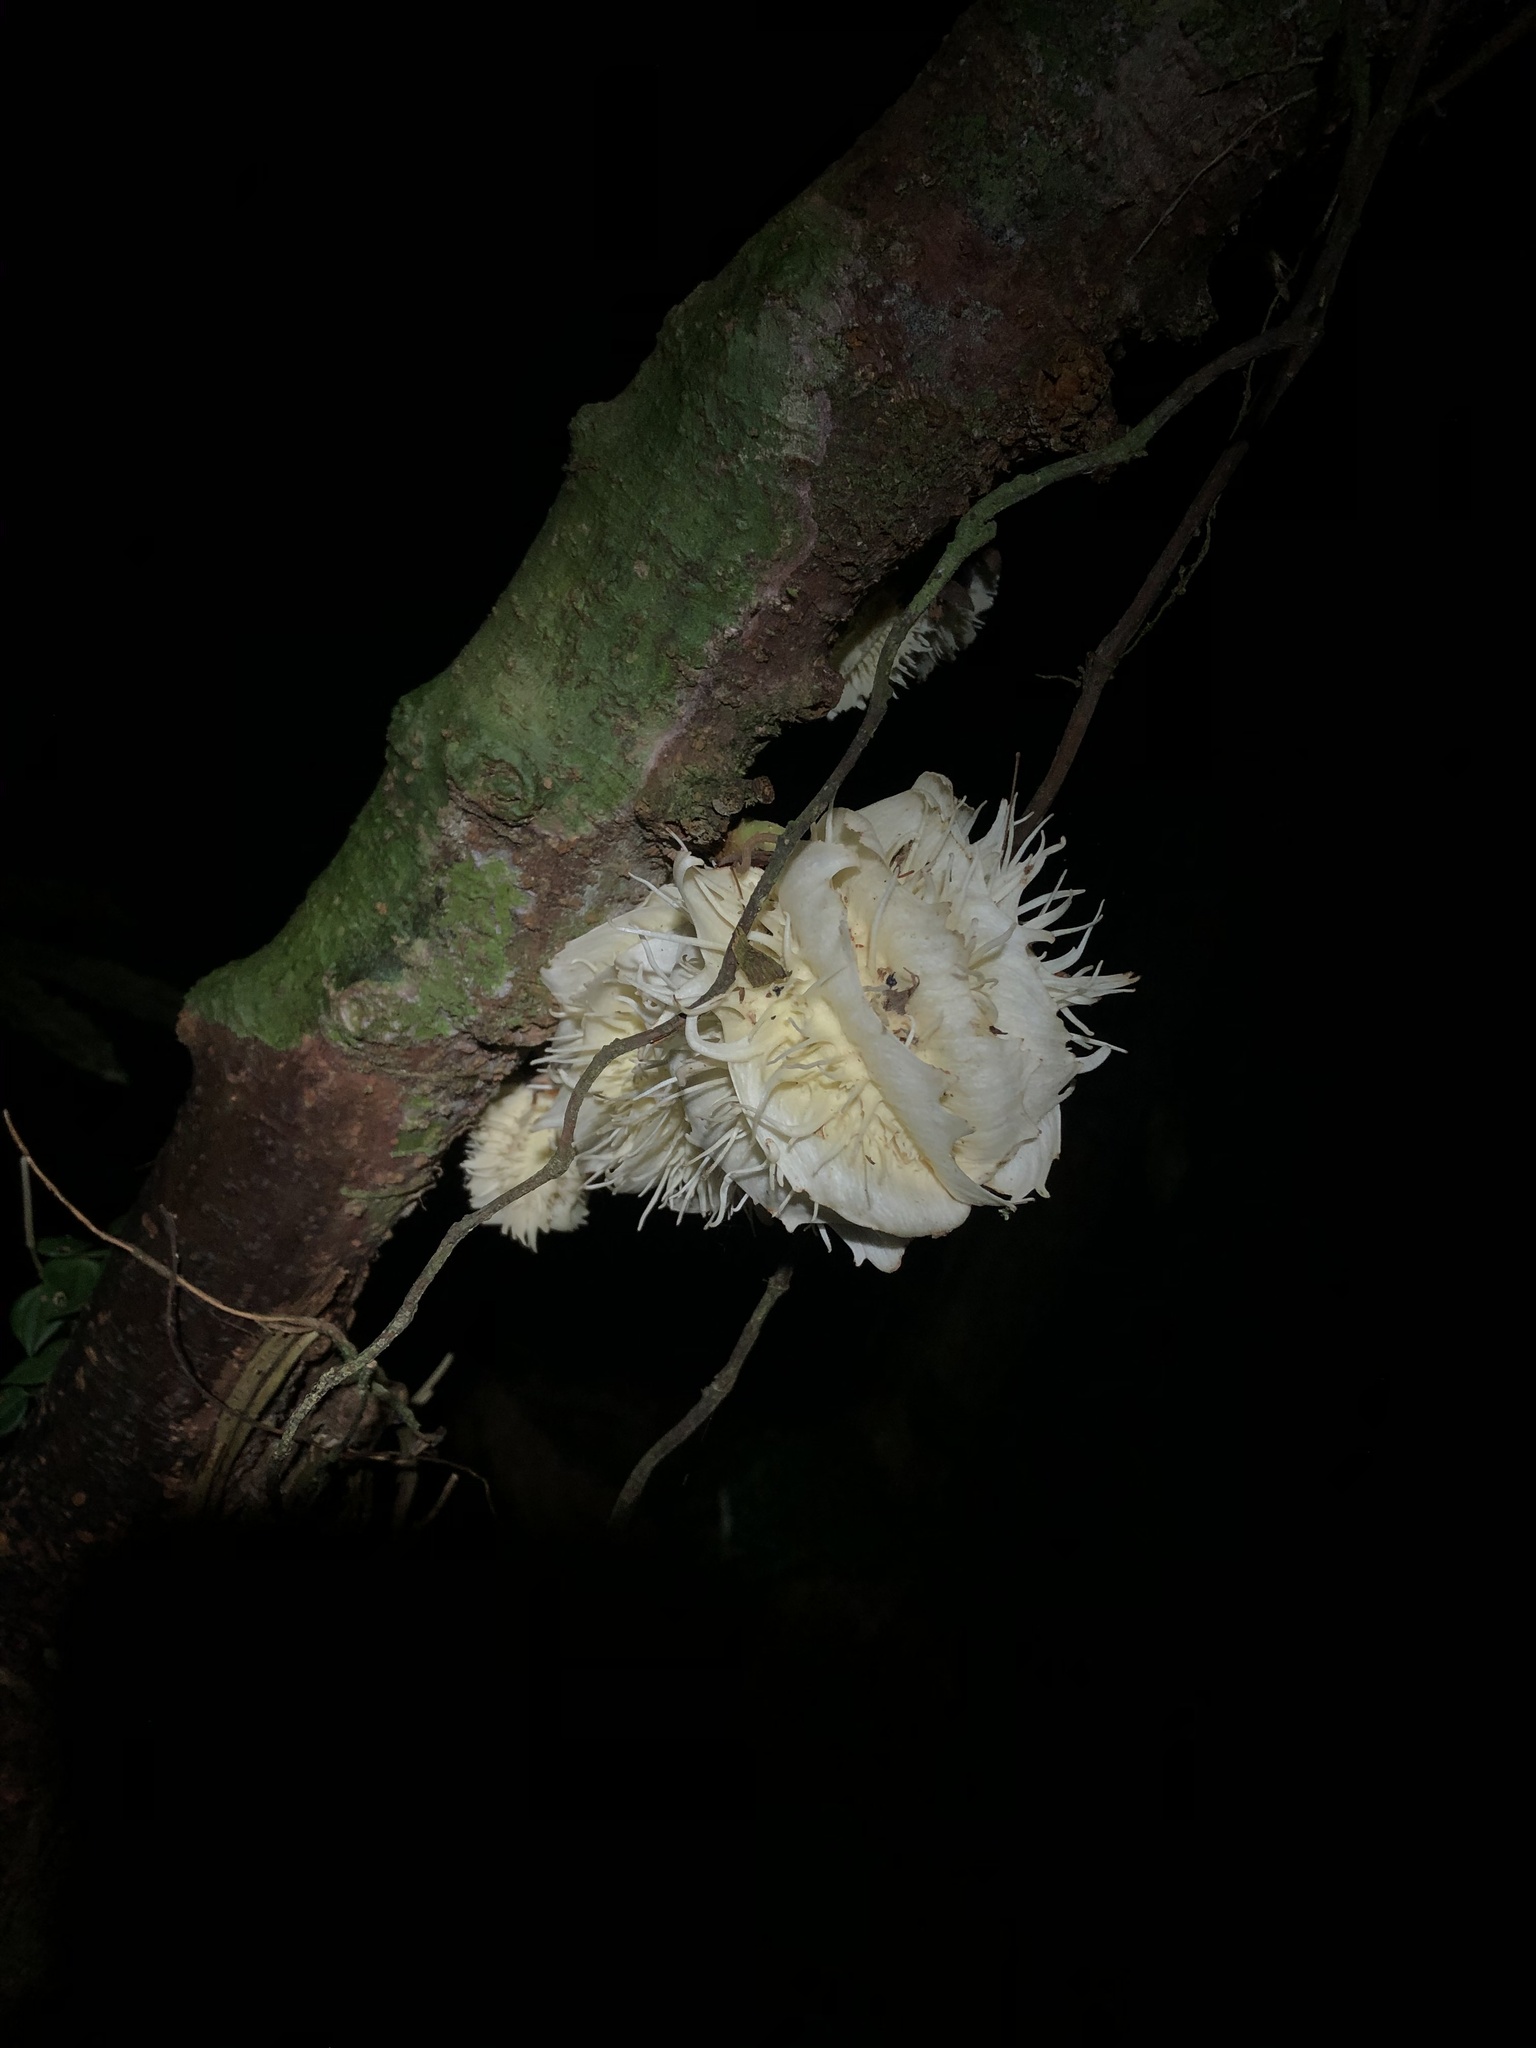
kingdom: Plantae
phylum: Tracheophyta
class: Magnoliopsida
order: Malpighiales
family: Achariaceae
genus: Carpotroche
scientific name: Carpotroche longifolia
